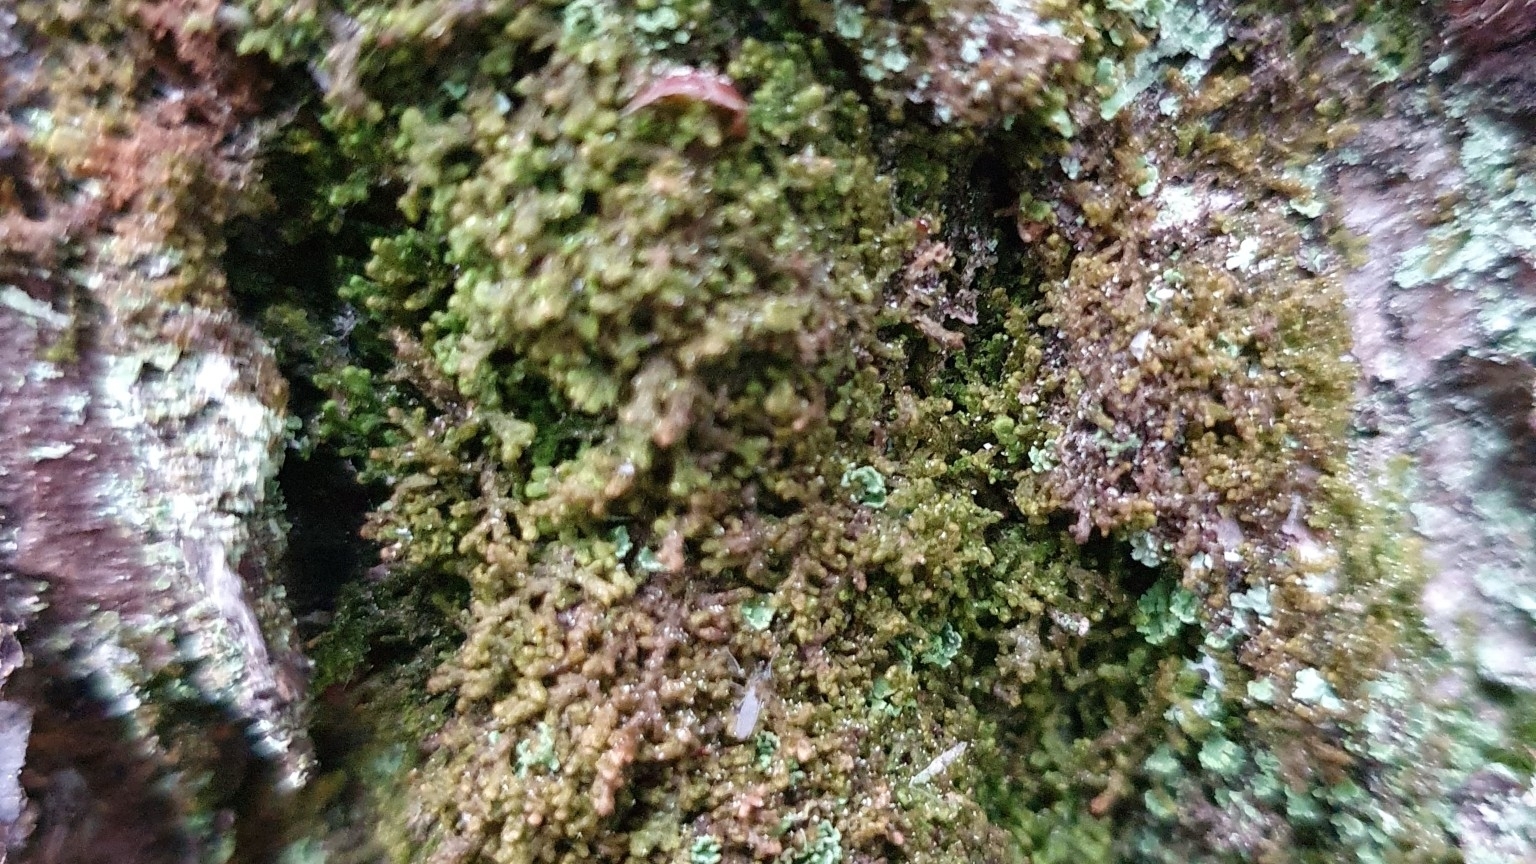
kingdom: Plantae
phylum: Marchantiophyta
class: Jungermanniopsida
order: Ptilidiales
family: Ptilidiaceae
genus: Ptilidium
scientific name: Ptilidium pulcherrimum
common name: Tree fringewort
